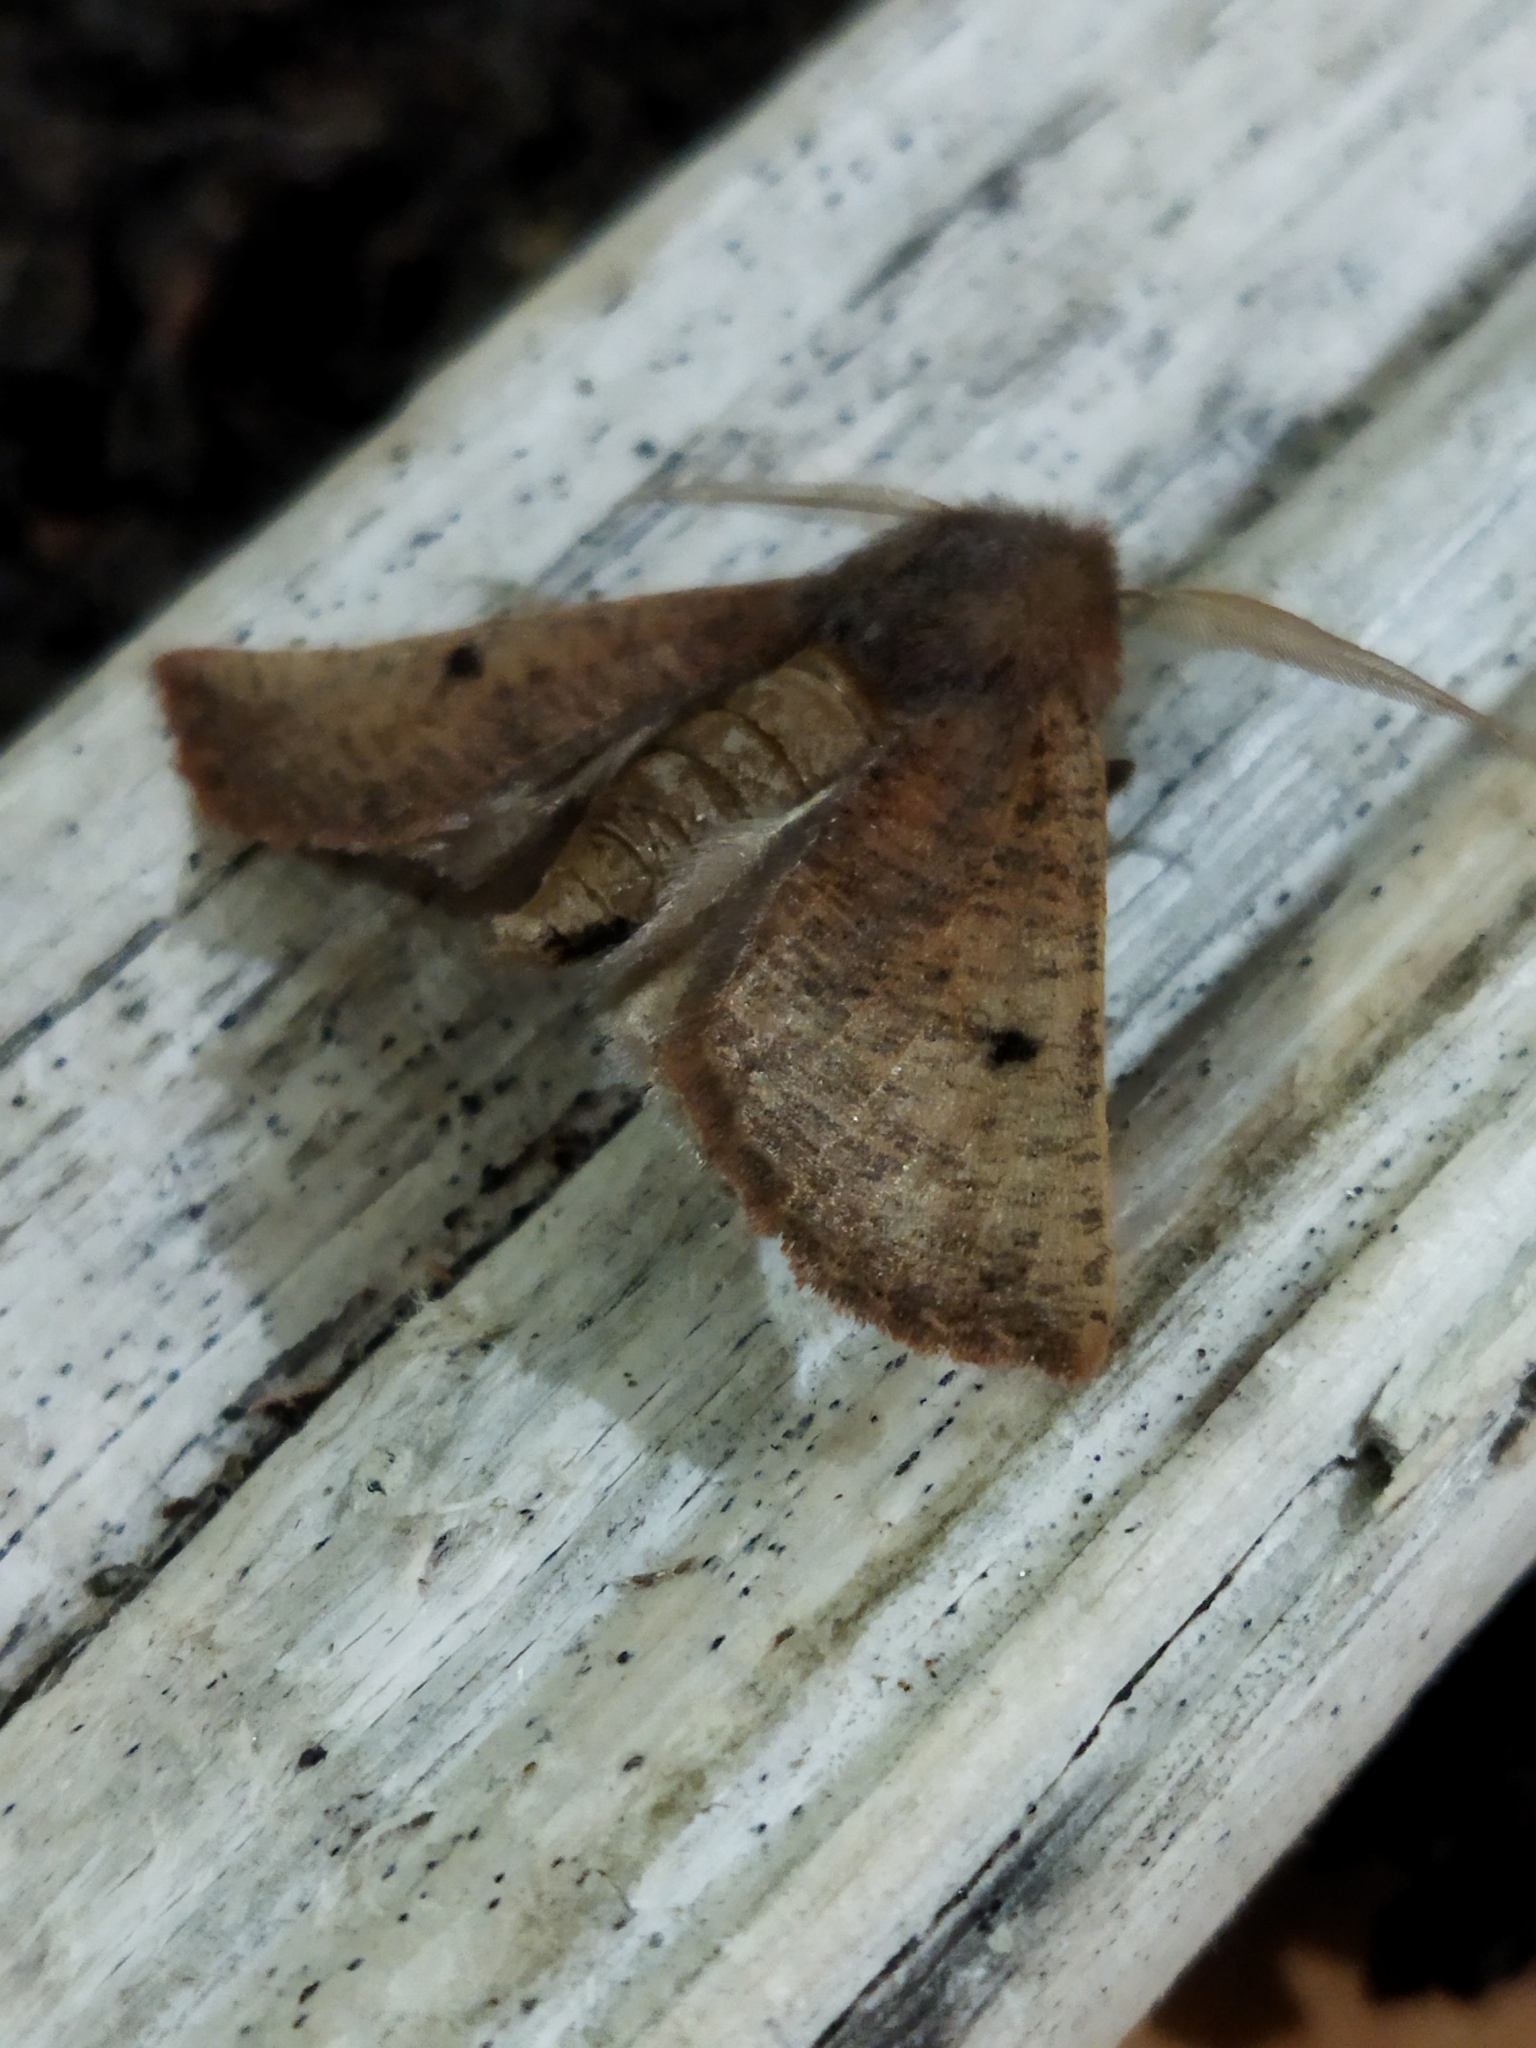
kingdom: Animalia
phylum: Arthropoda
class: Insecta
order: Lepidoptera
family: Geometridae
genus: Dasycorsa
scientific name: Dasycorsa modesta
